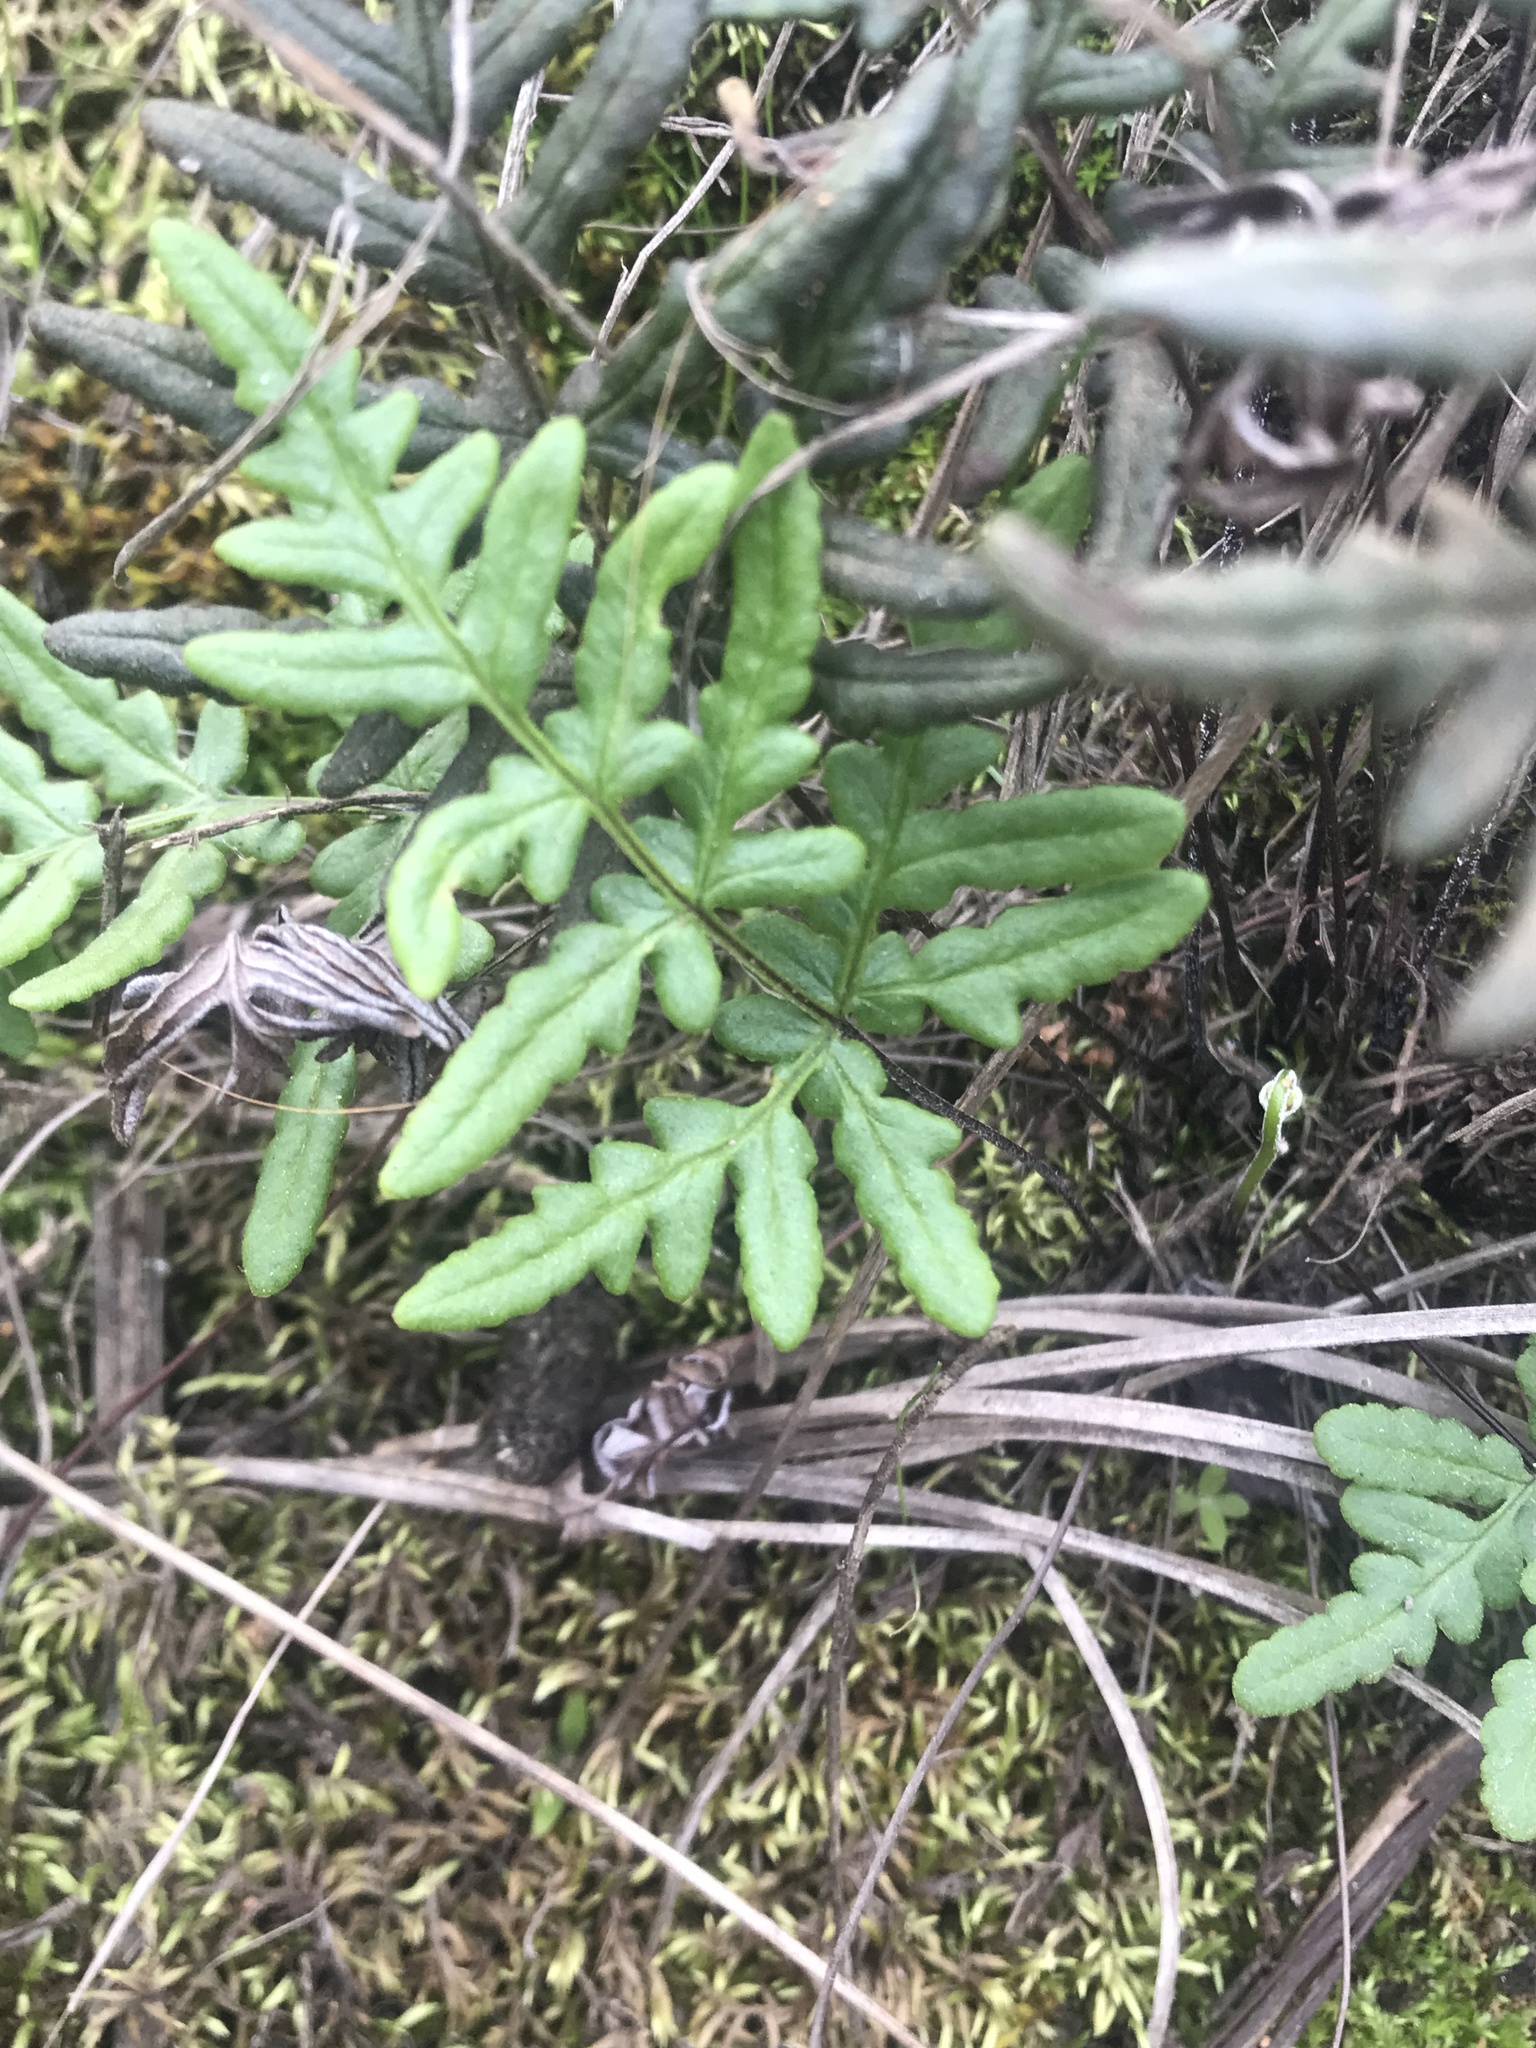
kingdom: Plantae
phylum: Tracheophyta
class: Polypodiopsida
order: Polypodiales
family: Pteridaceae
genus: Pentagramma
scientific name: Pentagramma triangularis
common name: Gold fern
